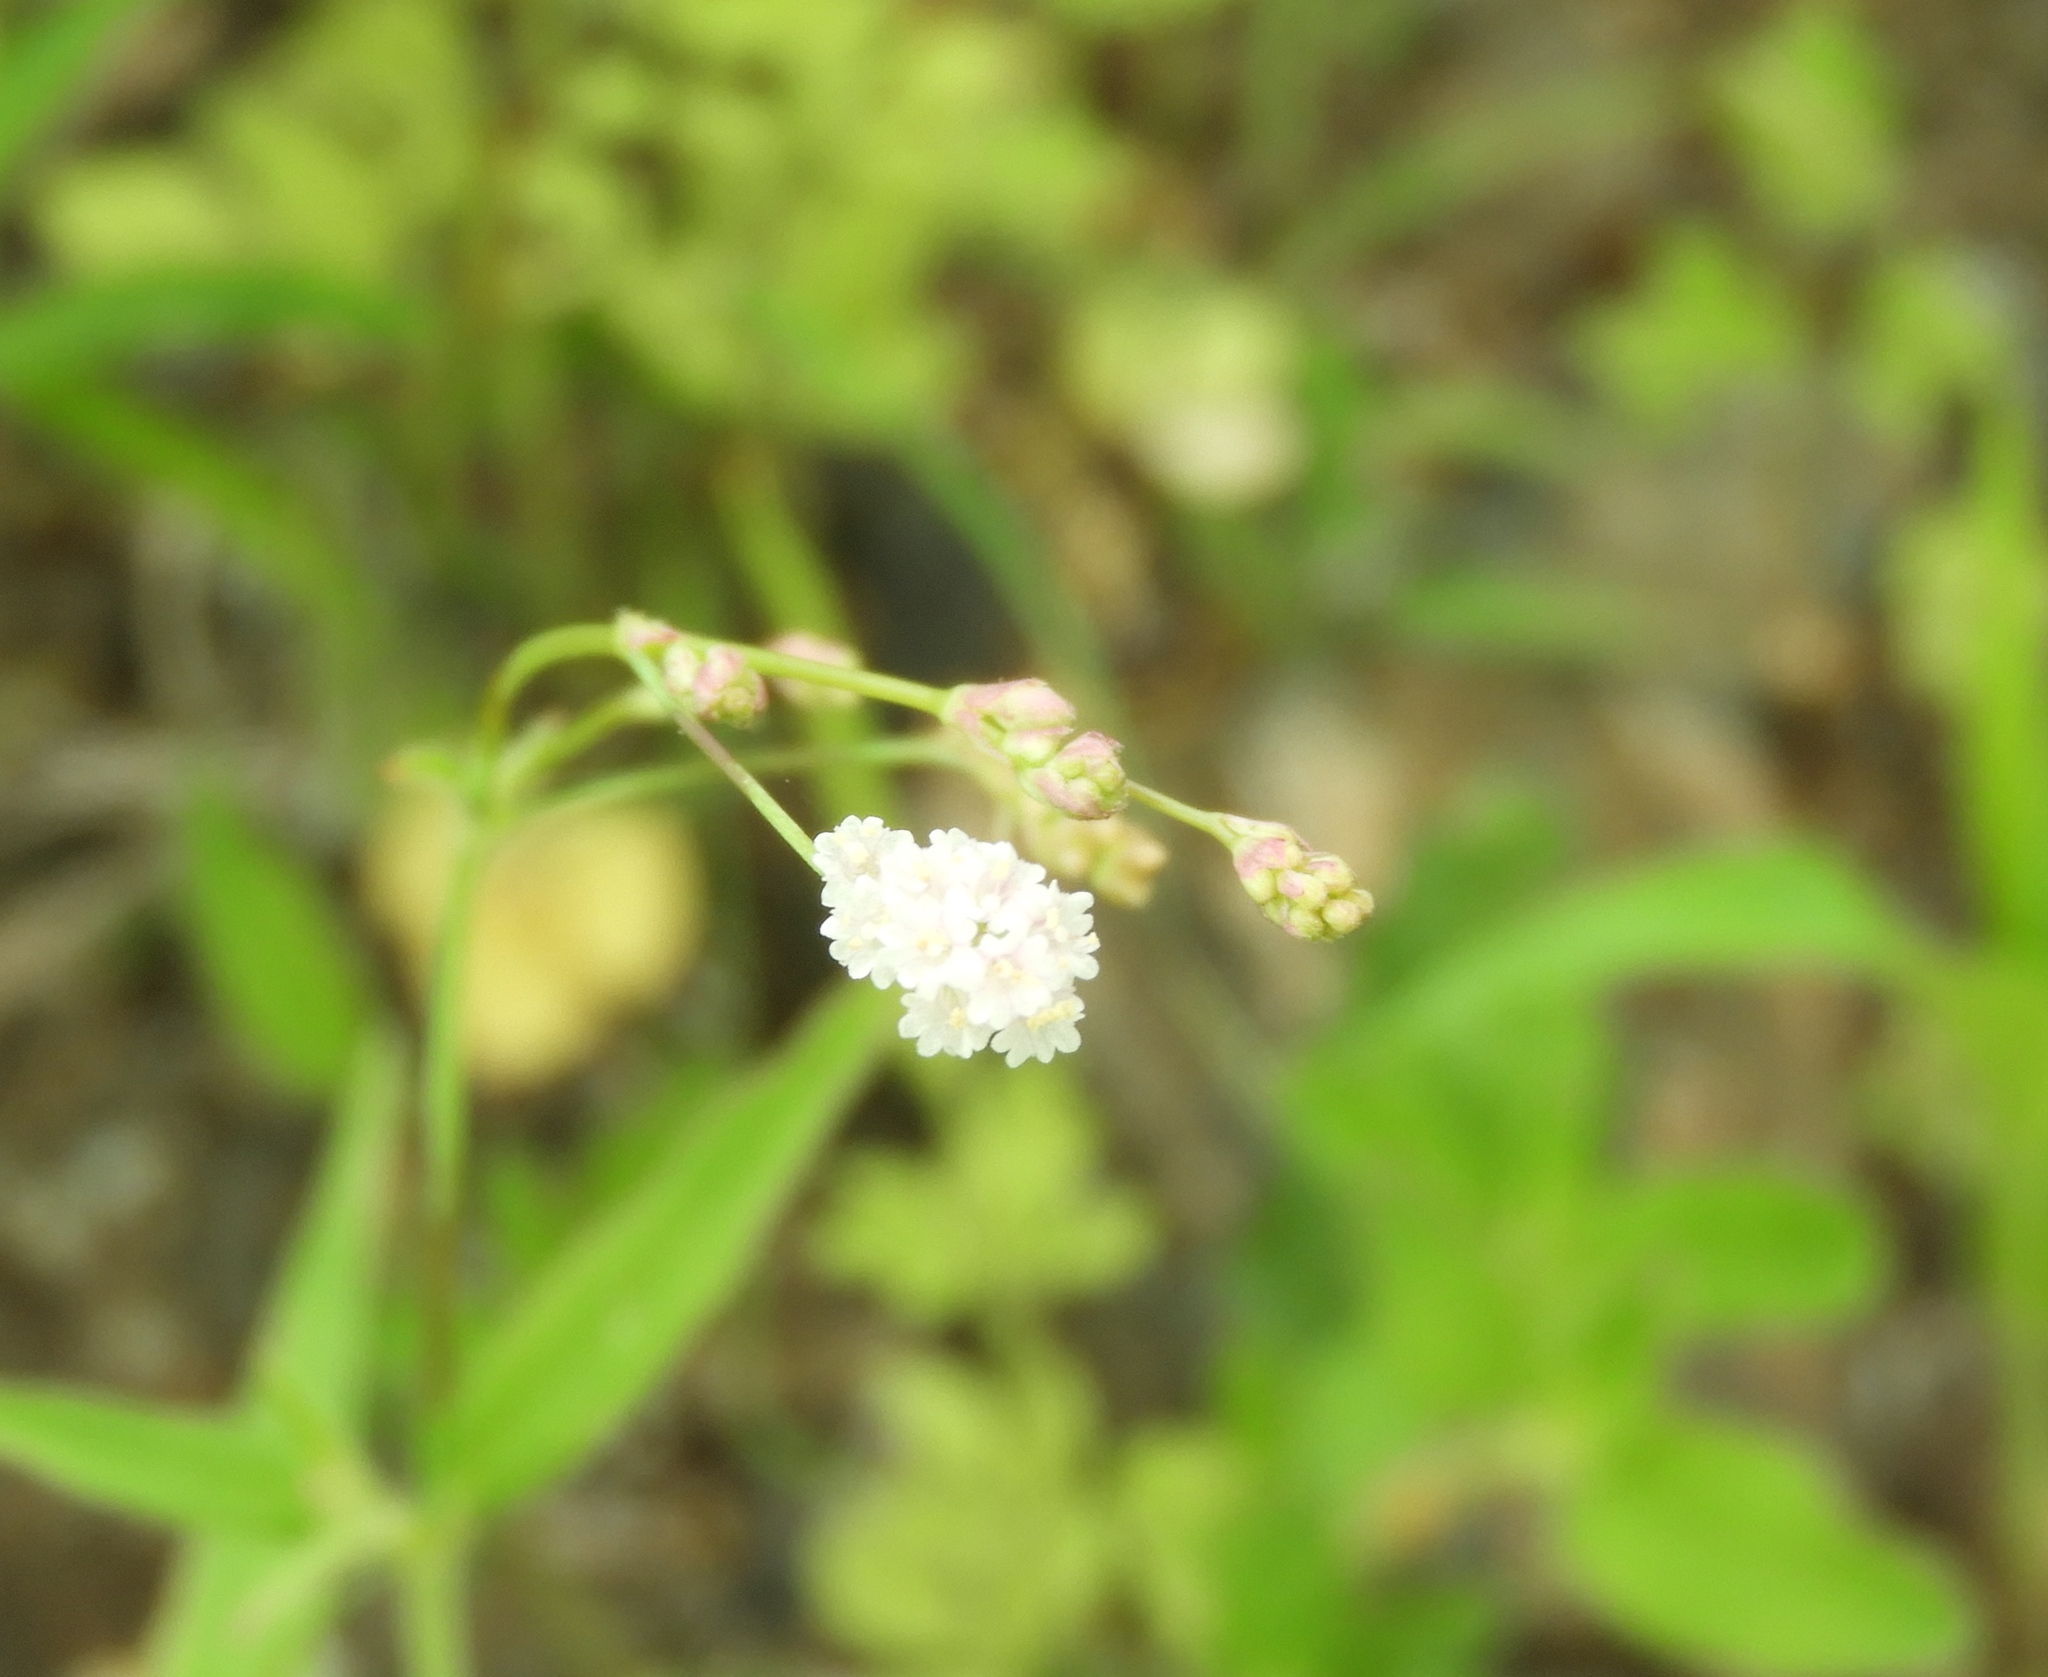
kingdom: Plantae
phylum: Tracheophyta
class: Magnoliopsida
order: Caryophyllales
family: Nyctaginaceae
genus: Boerhavia
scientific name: Boerhavia xantii
